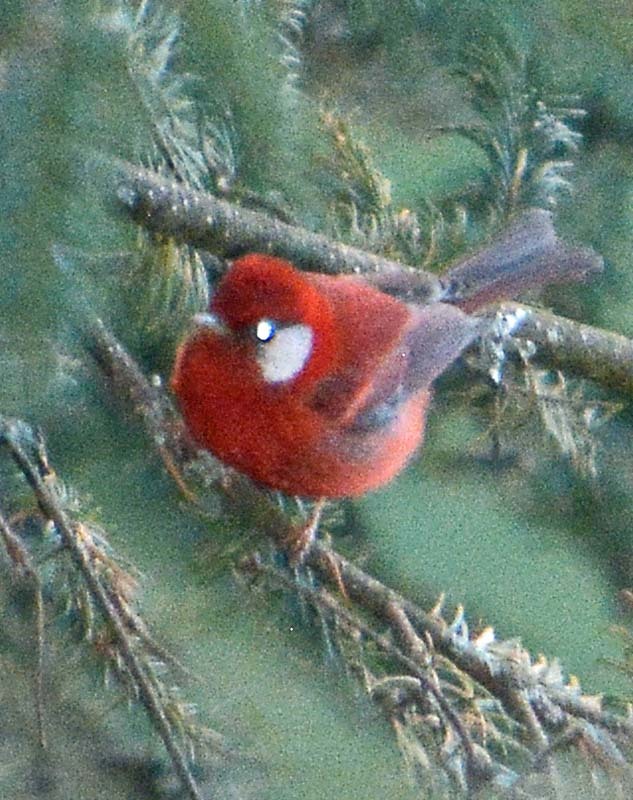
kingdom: Animalia
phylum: Chordata
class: Aves
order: Passeriformes
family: Parulidae
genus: Cardellina
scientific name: Cardellina rubra
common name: Red warbler
